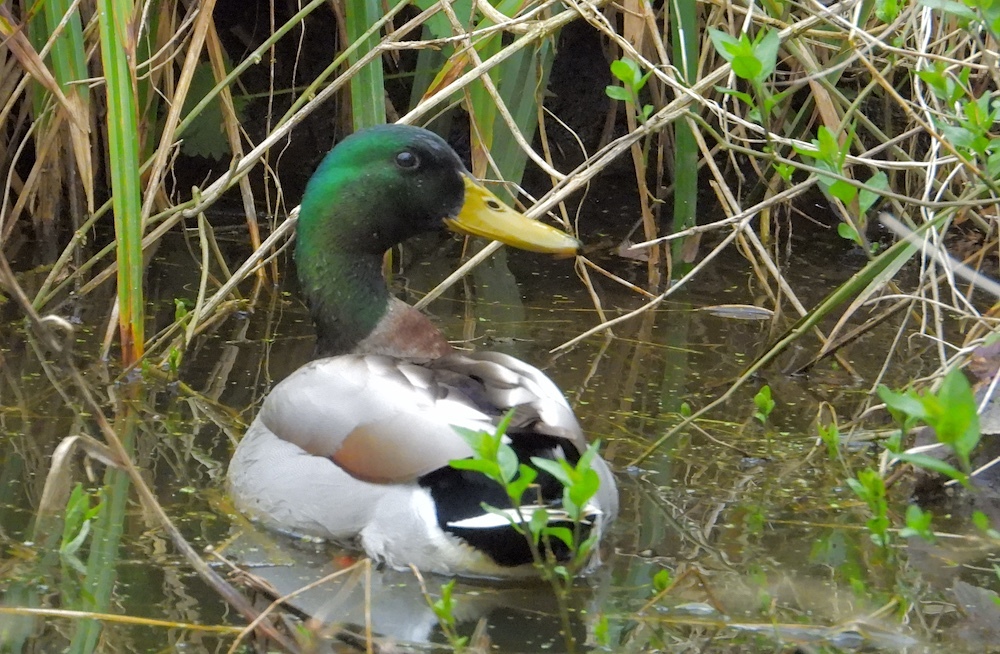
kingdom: Animalia
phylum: Chordata
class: Aves
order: Anseriformes
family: Anatidae
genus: Anas
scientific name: Anas platyrhynchos
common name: Mallard
